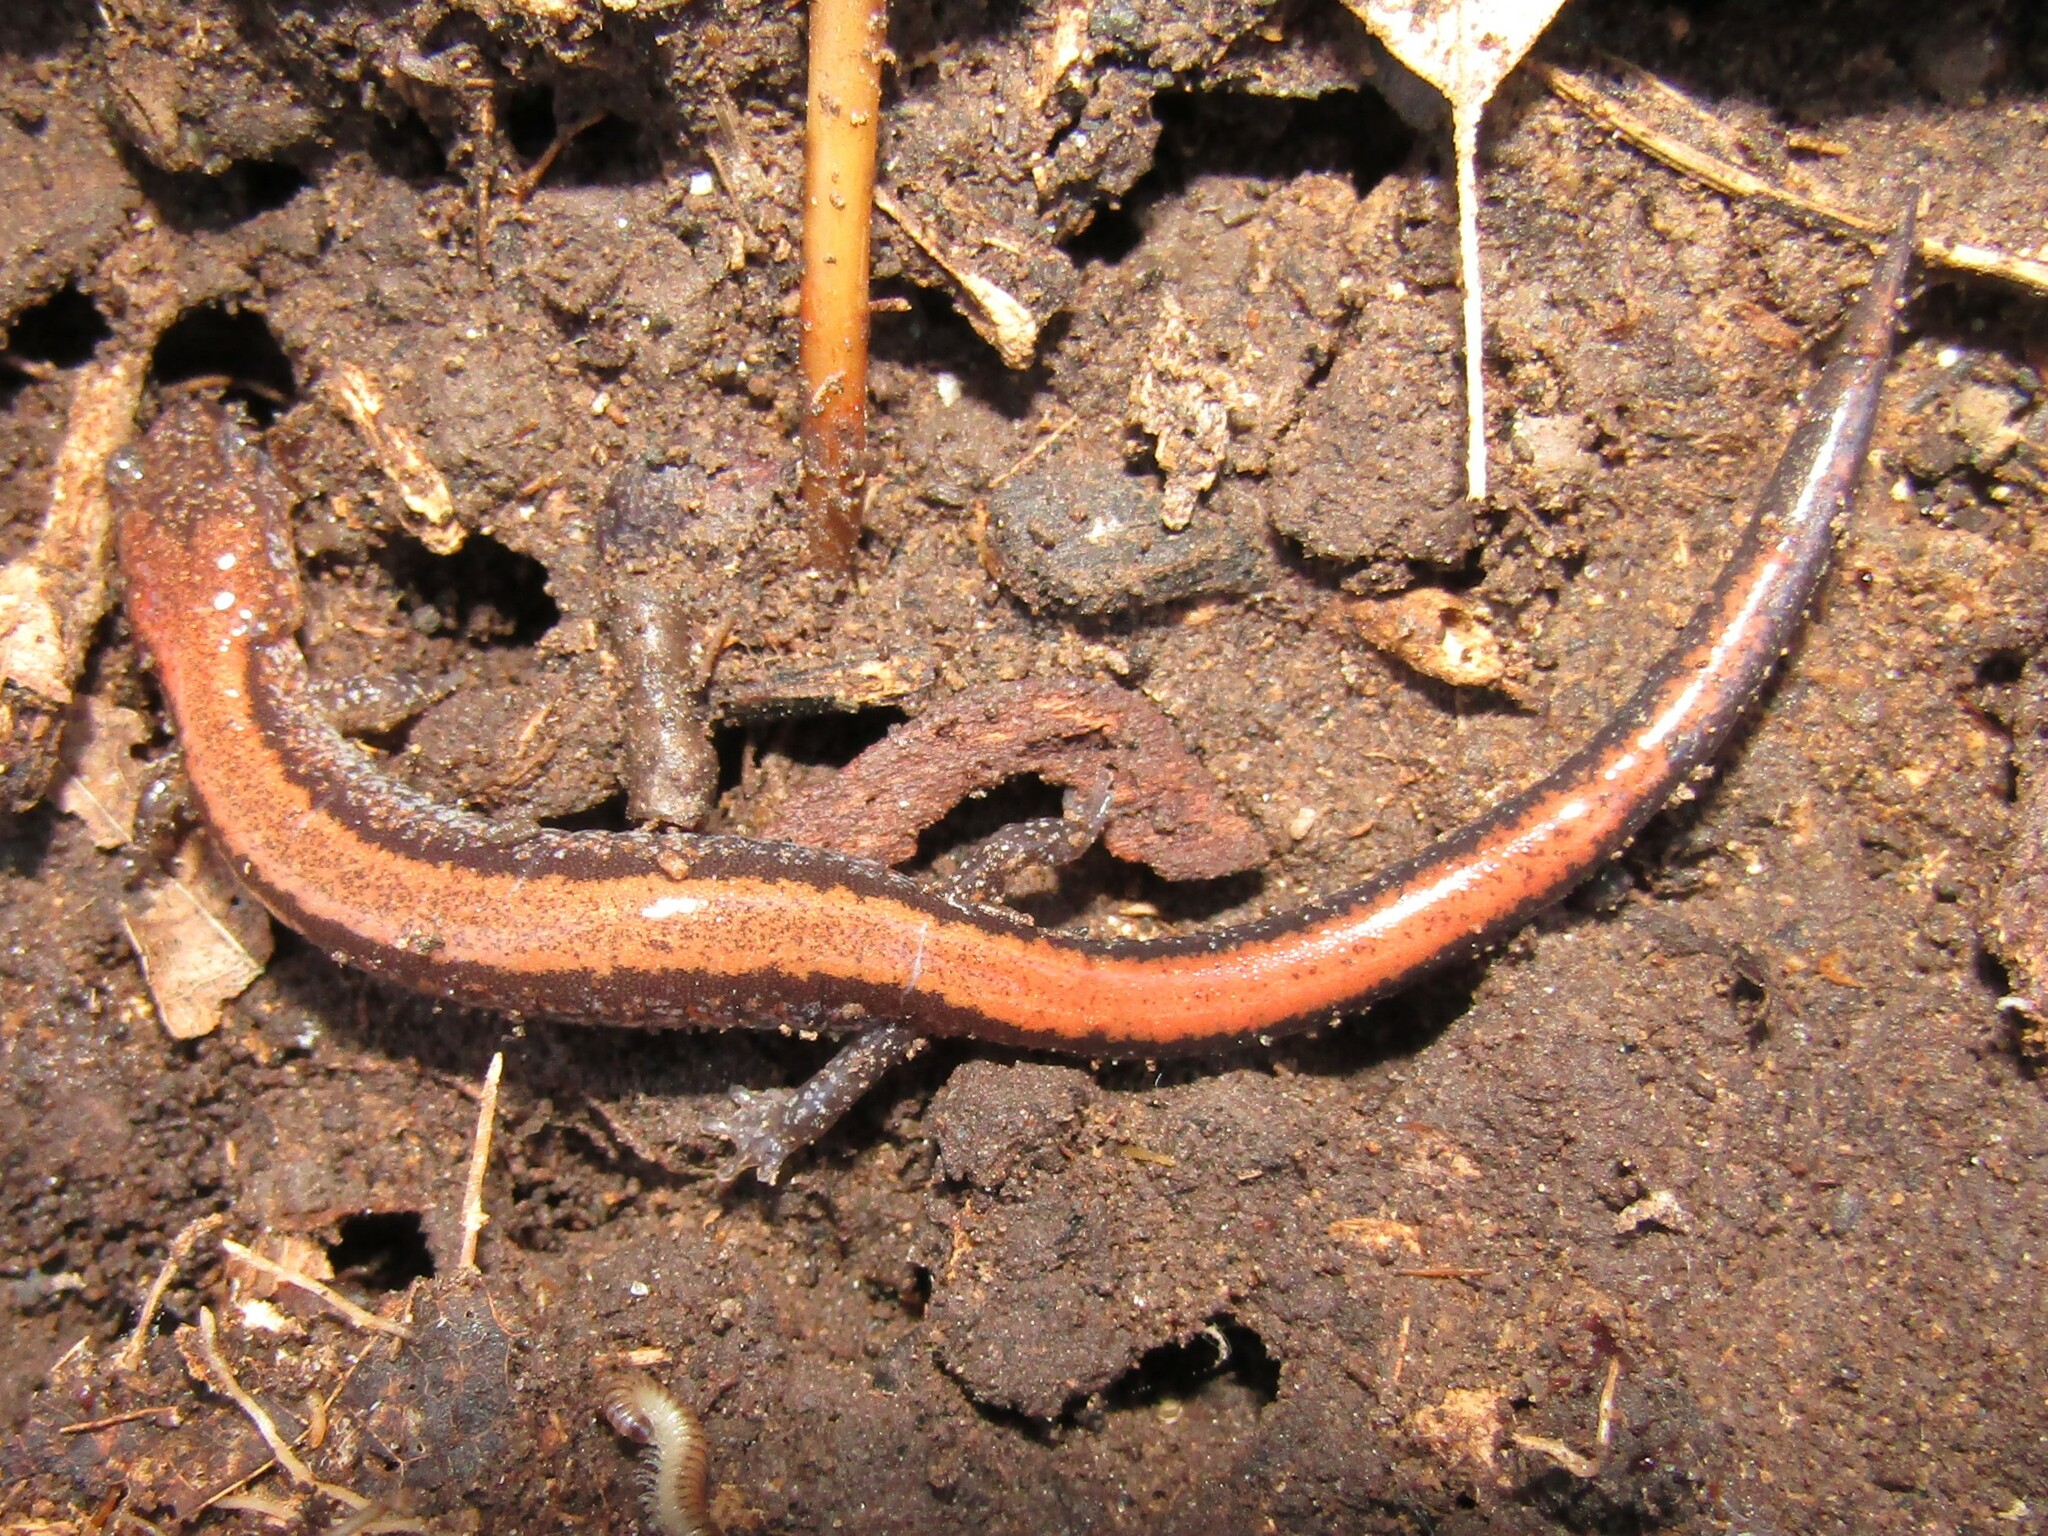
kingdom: Animalia
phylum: Chordata
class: Amphibia
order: Caudata
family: Plethodontidae
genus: Plethodon
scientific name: Plethodon cinereus
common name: Redback salamander
